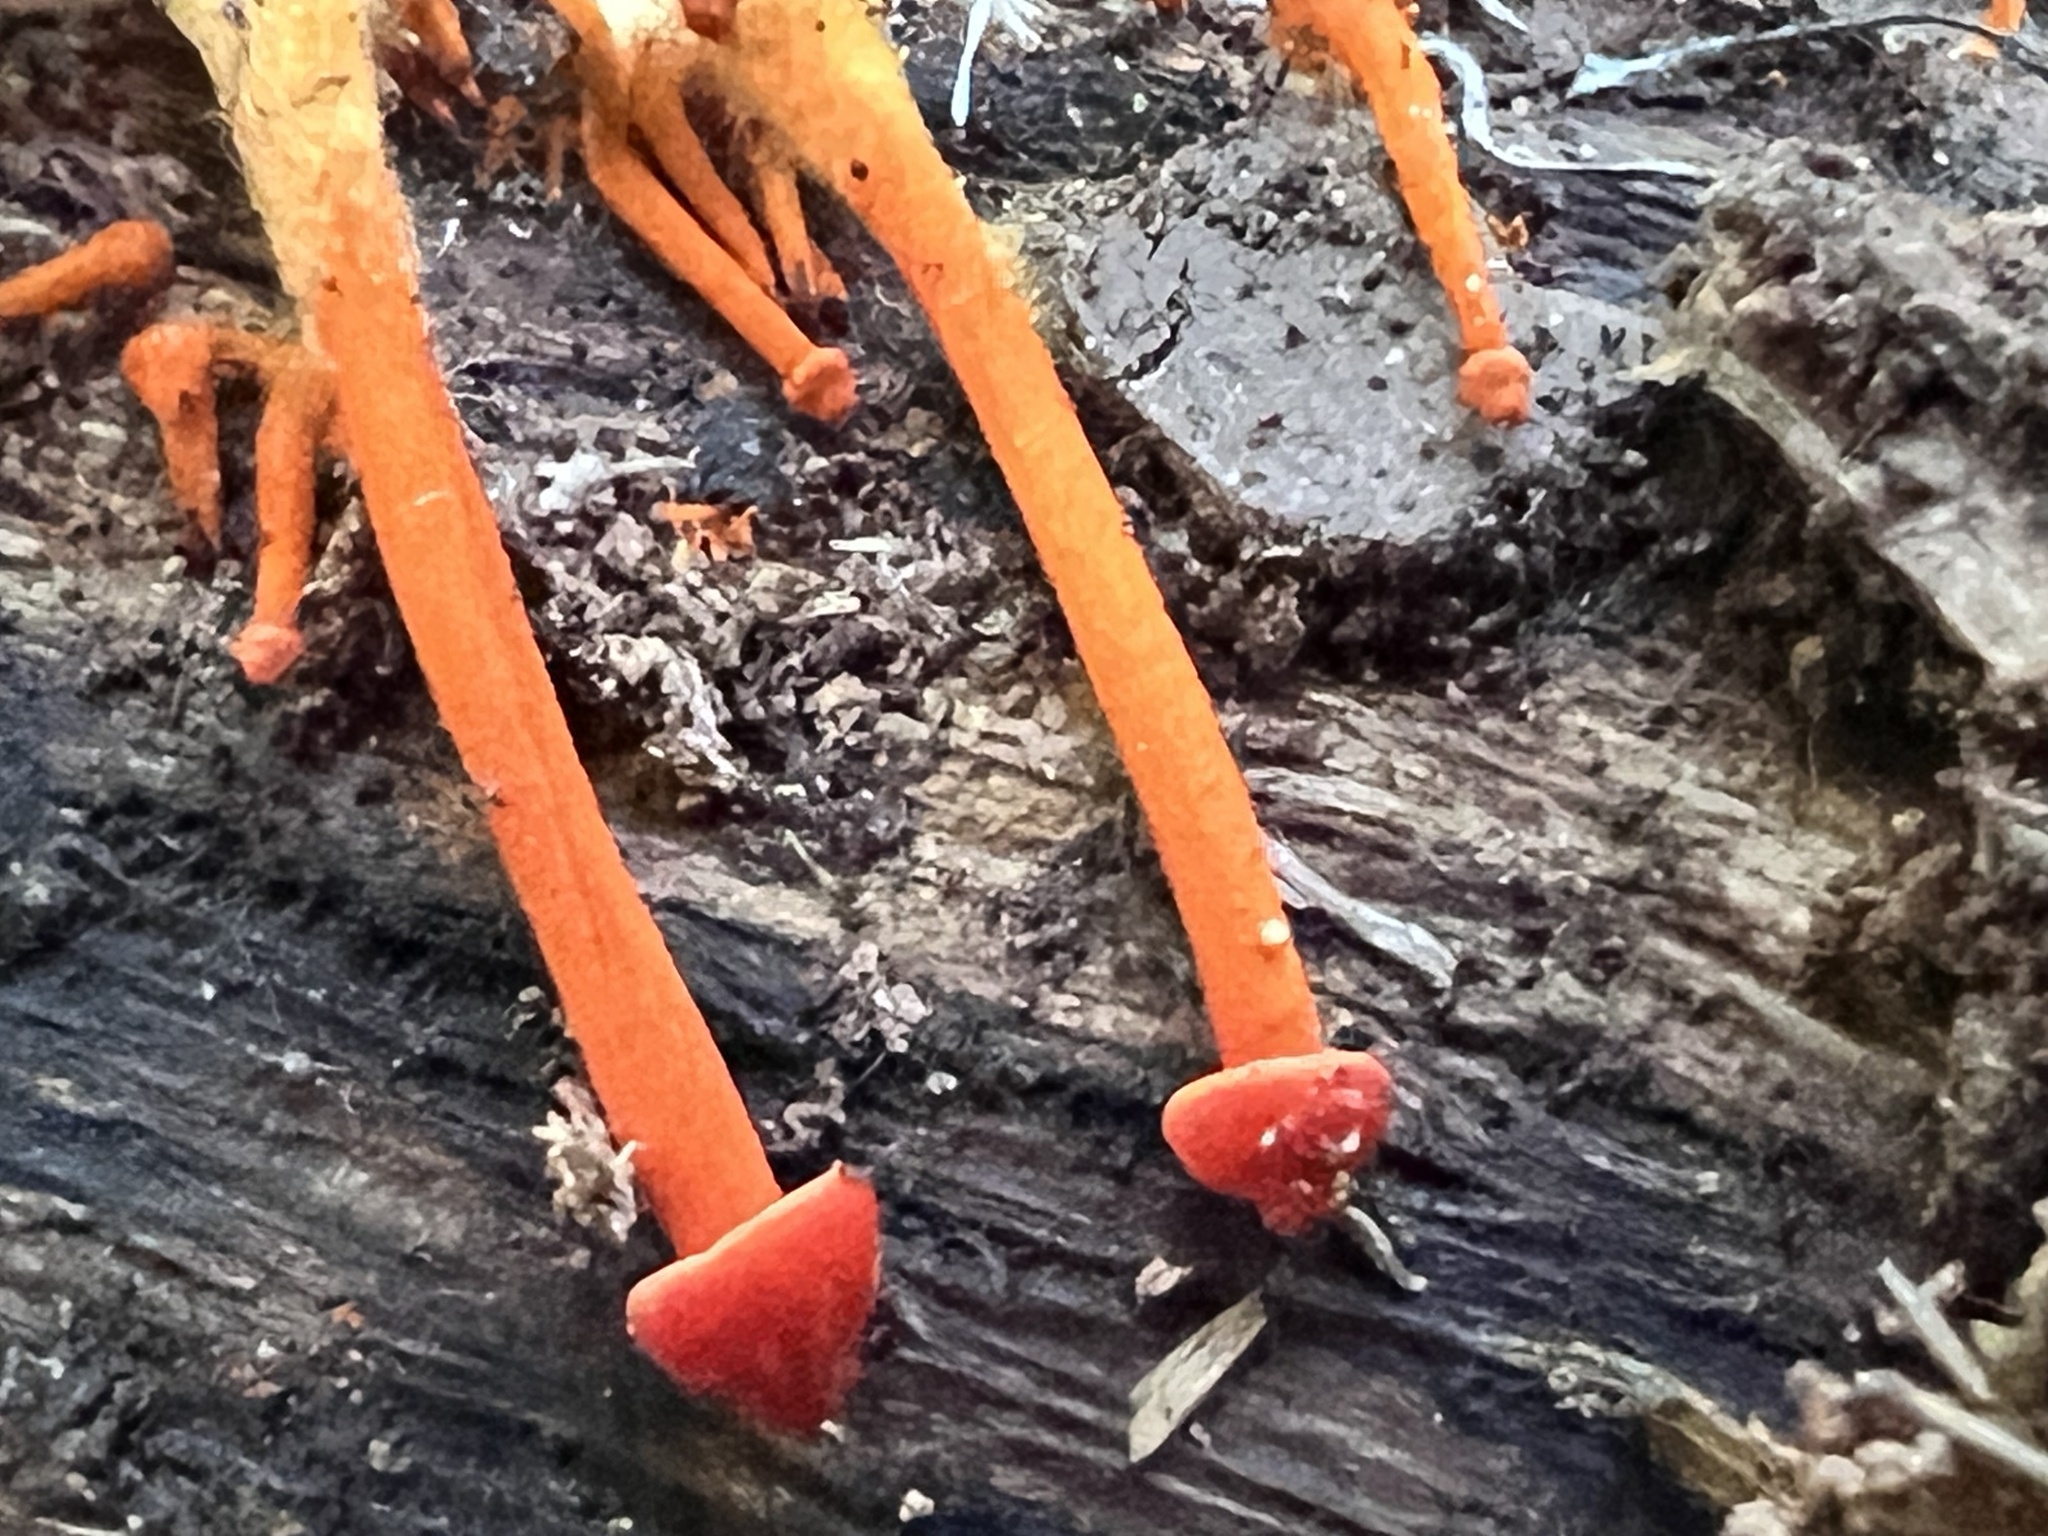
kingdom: Fungi
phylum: Basidiomycota
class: Agaricomycetes
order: Agaricales
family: Mycenaceae
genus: Mycena
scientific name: Mycena leaiana
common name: Orange mycena
